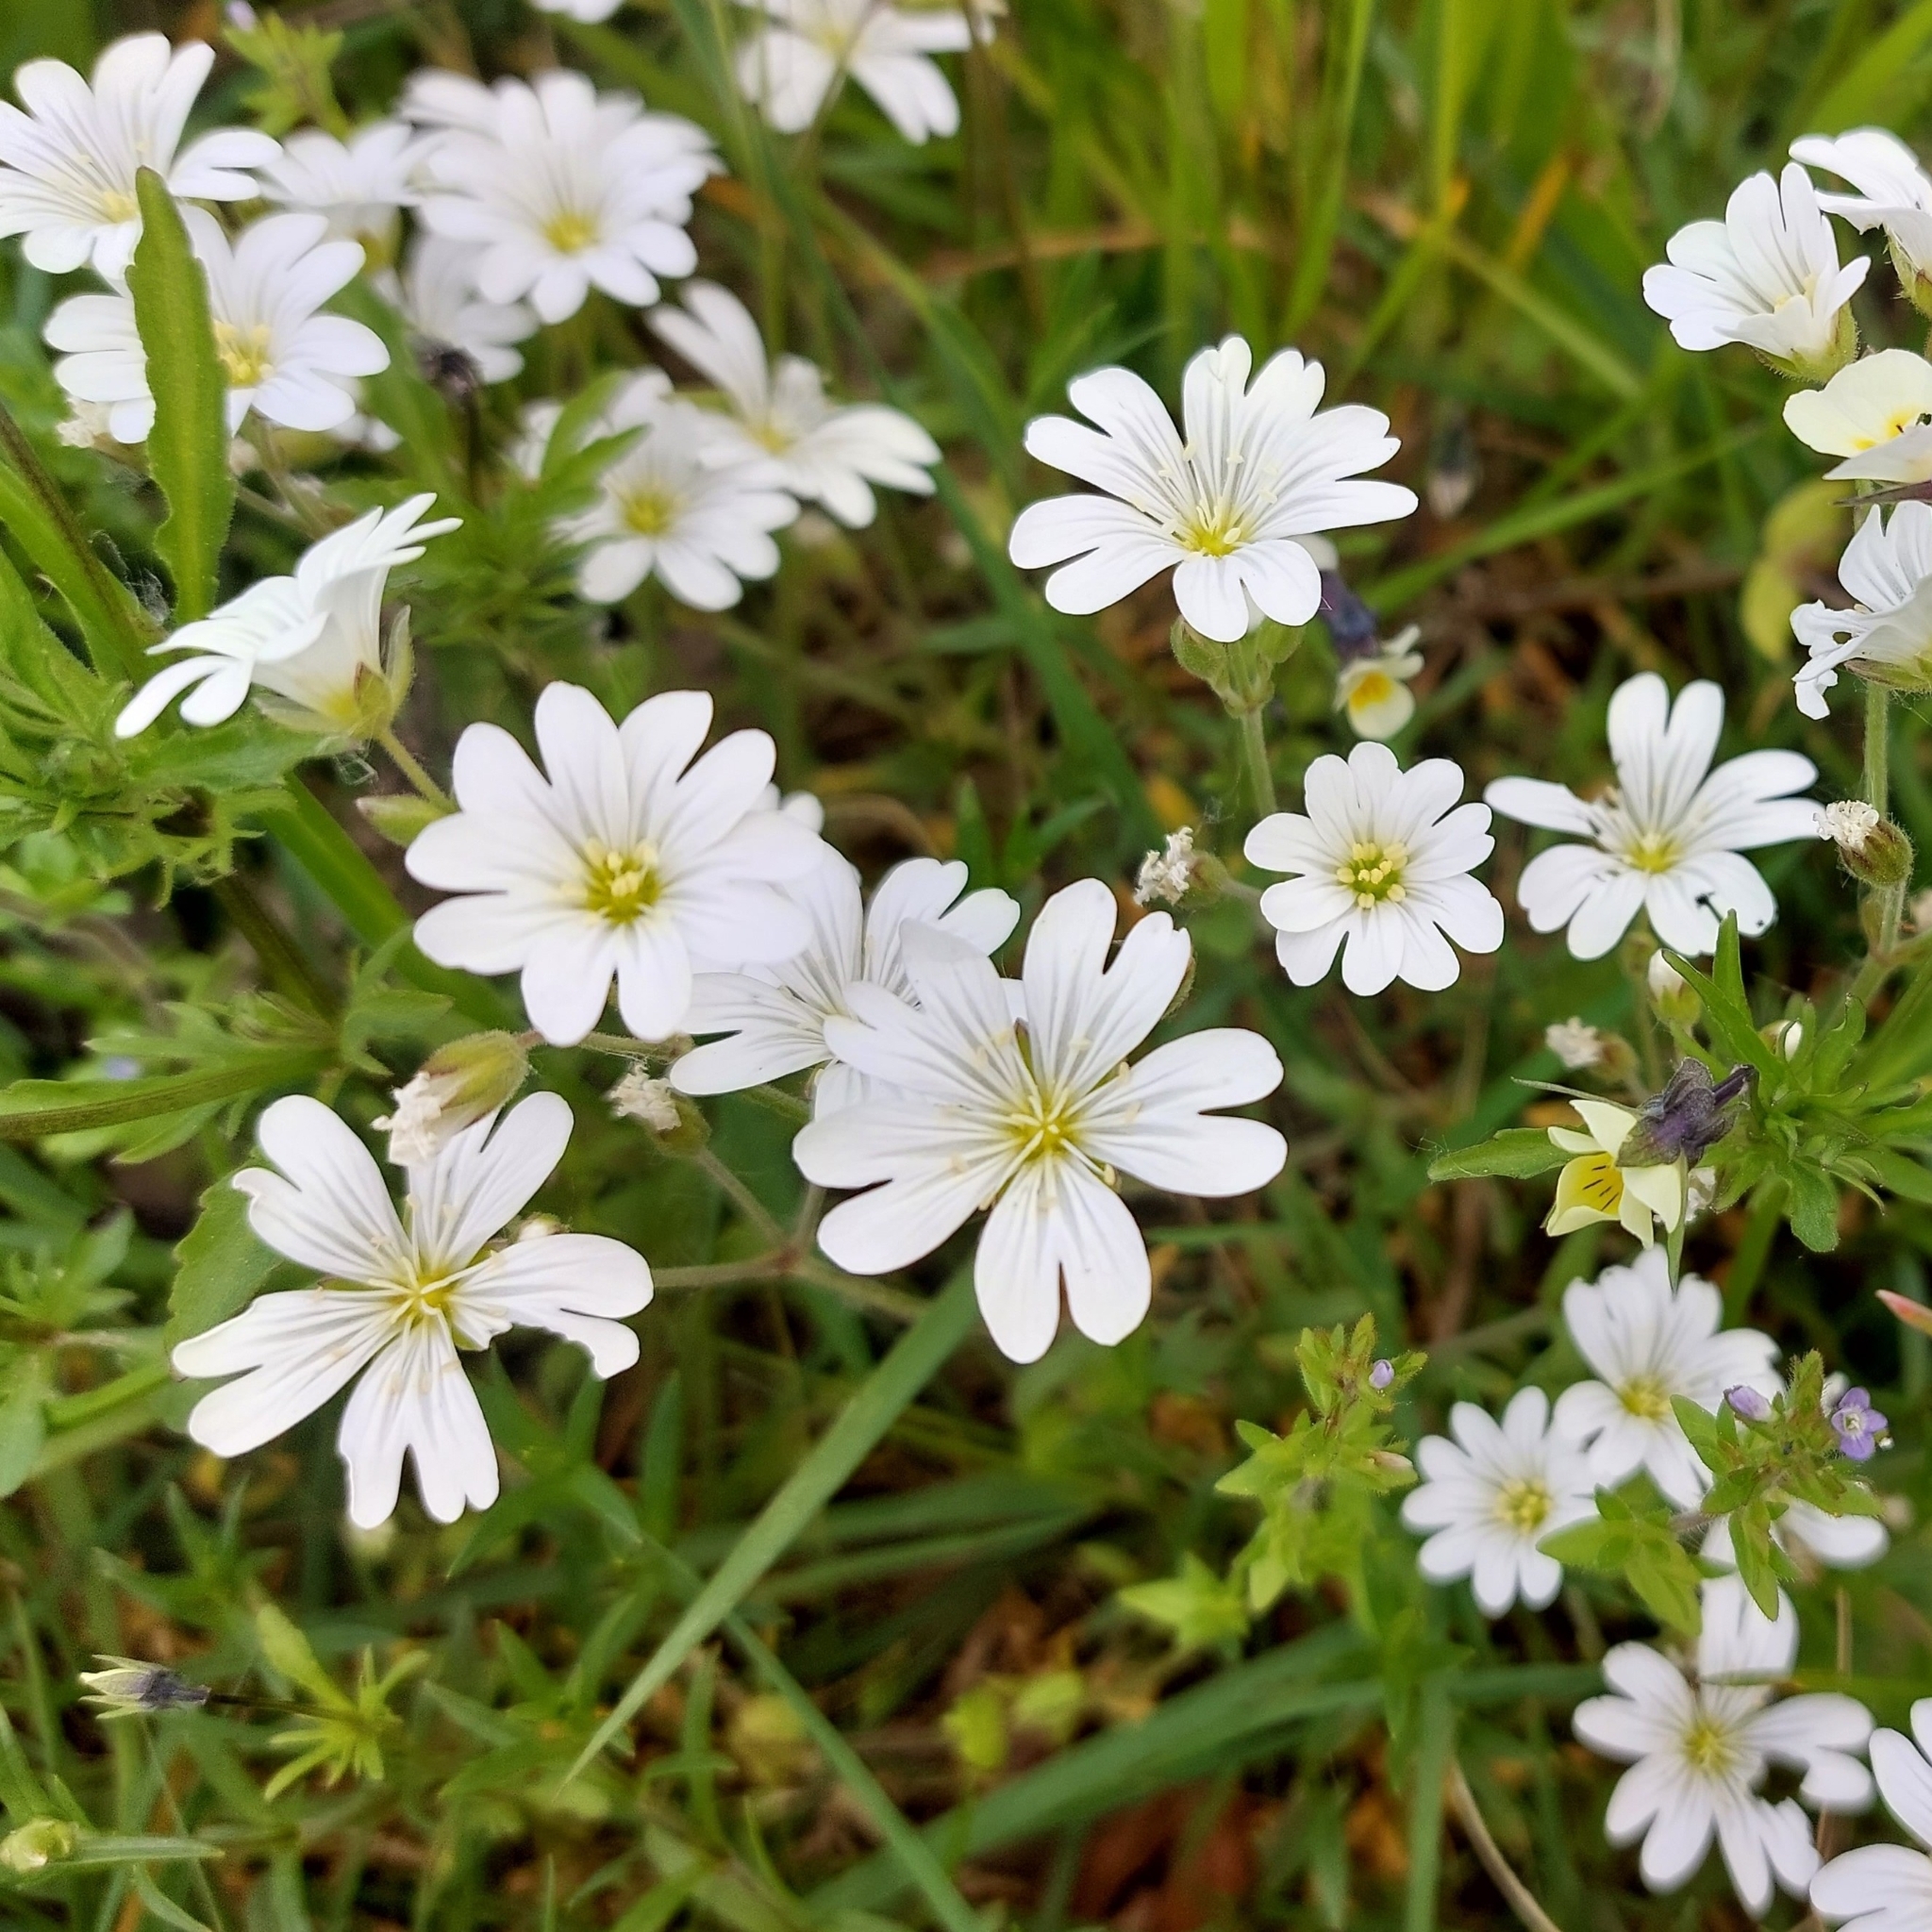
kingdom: Plantae
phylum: Tracheophyta
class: Magnoliopsida
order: Caryophyllales
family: Caryophyllaceae
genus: Cerastium
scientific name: Cerastium arvense
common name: Field mouse-ear
